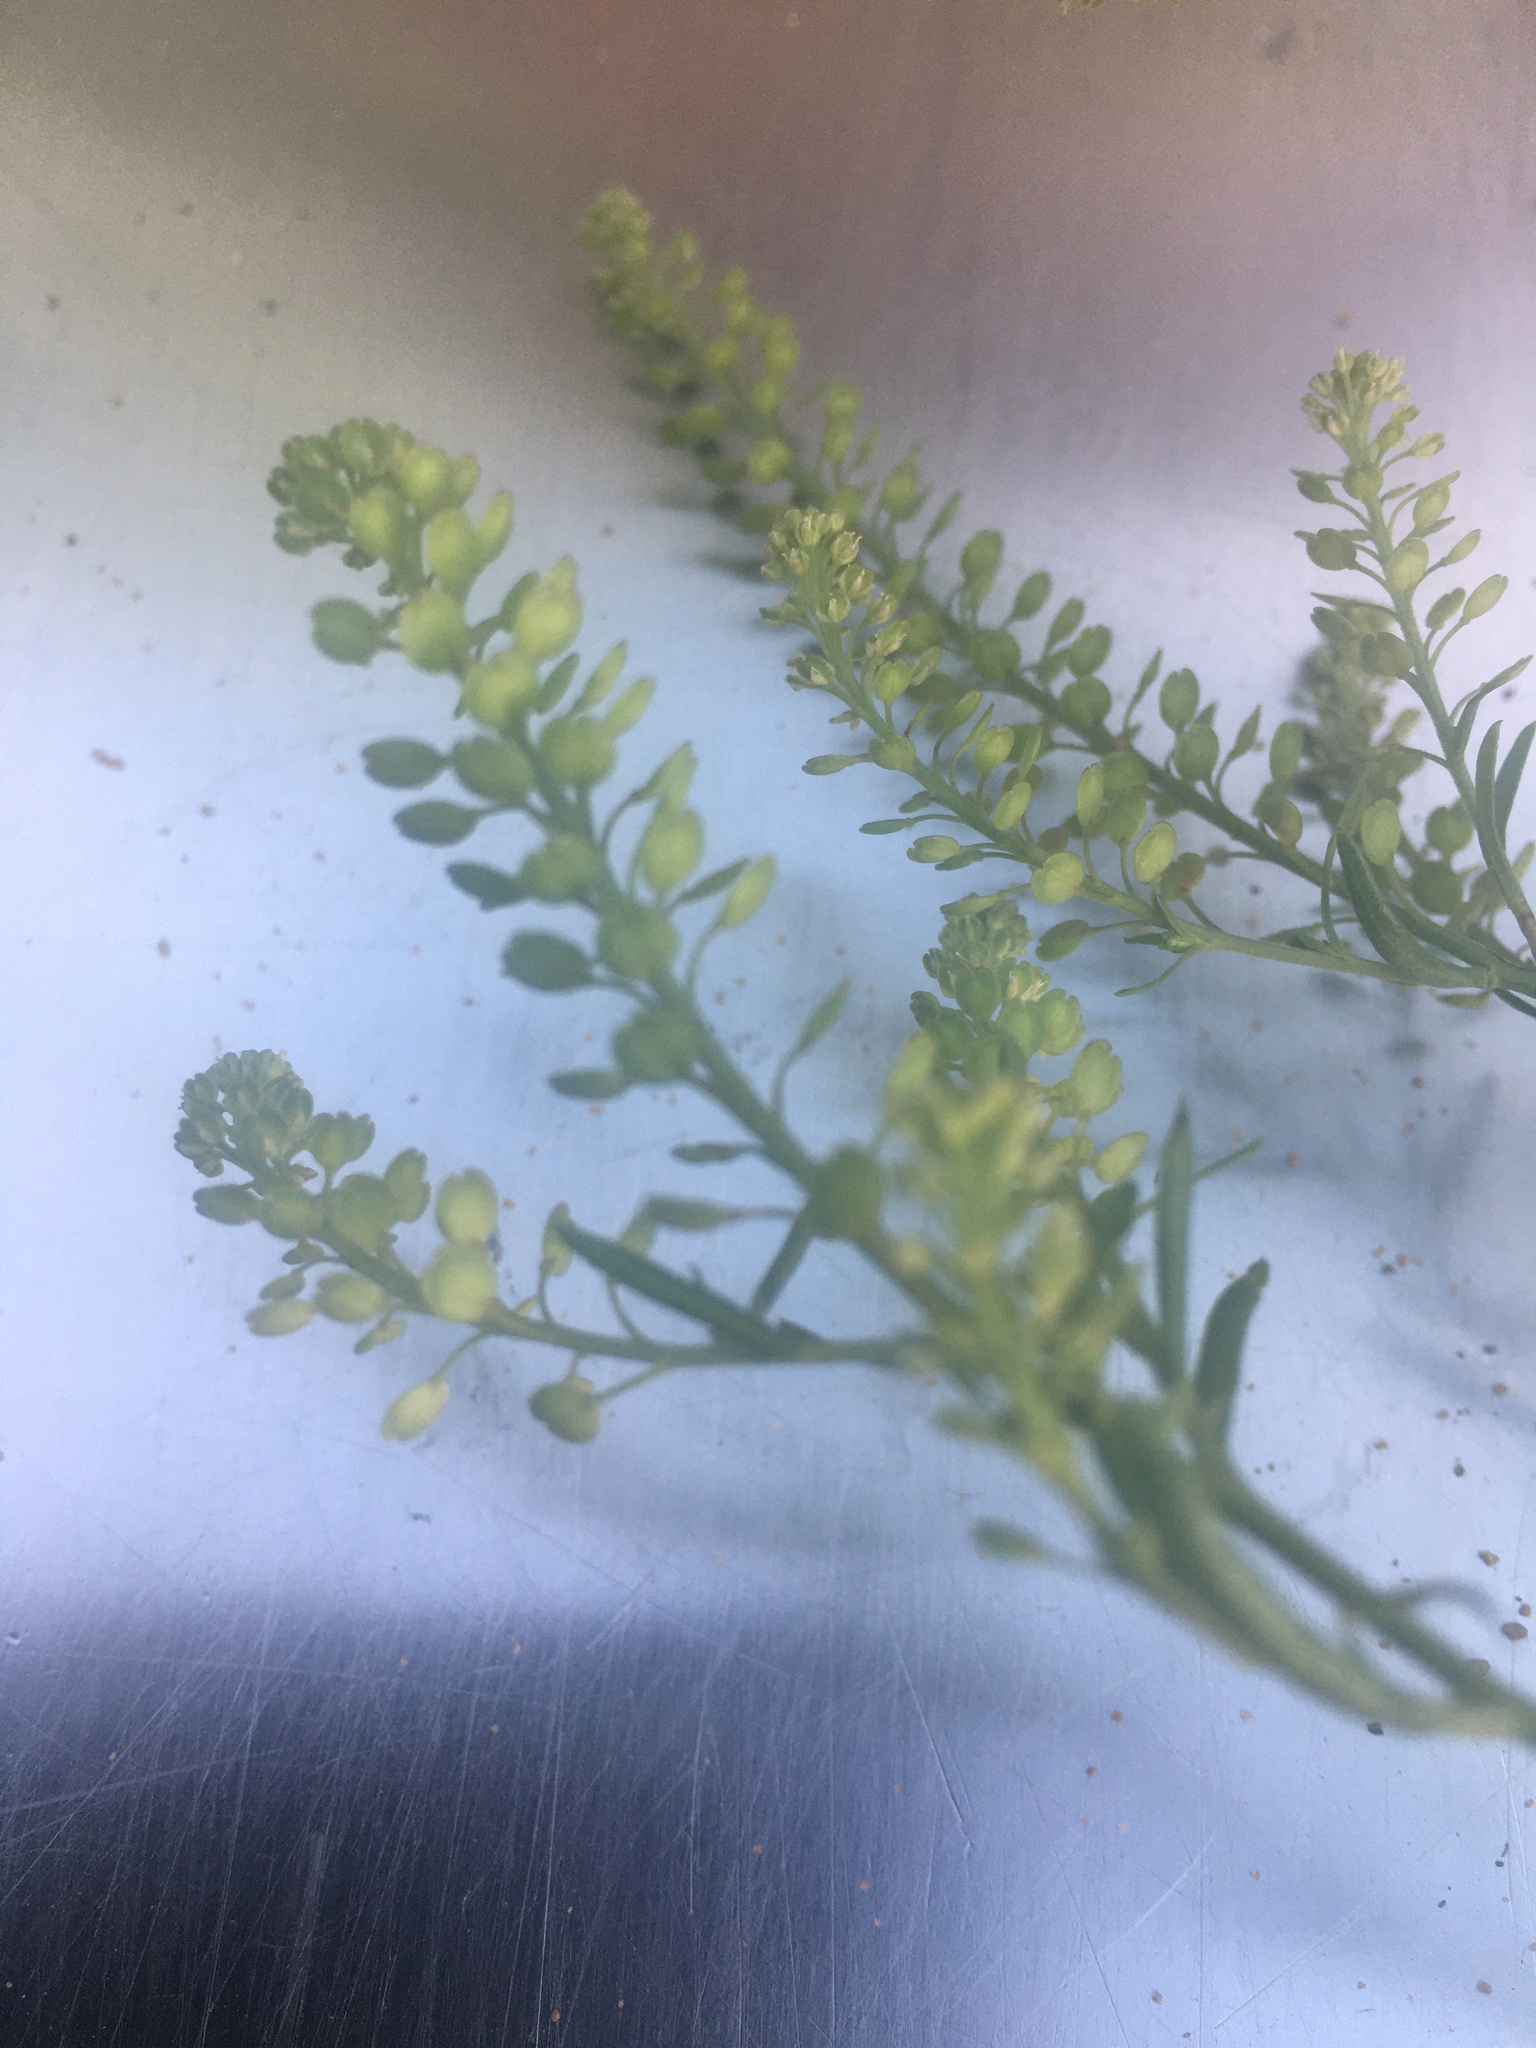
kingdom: Plantae
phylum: Tracheophyta
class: Magnoliopsida
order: Brassicales
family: Brassicaceae
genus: Lepidium
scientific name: Lepidium densiflorum
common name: Miner's pepperwort
